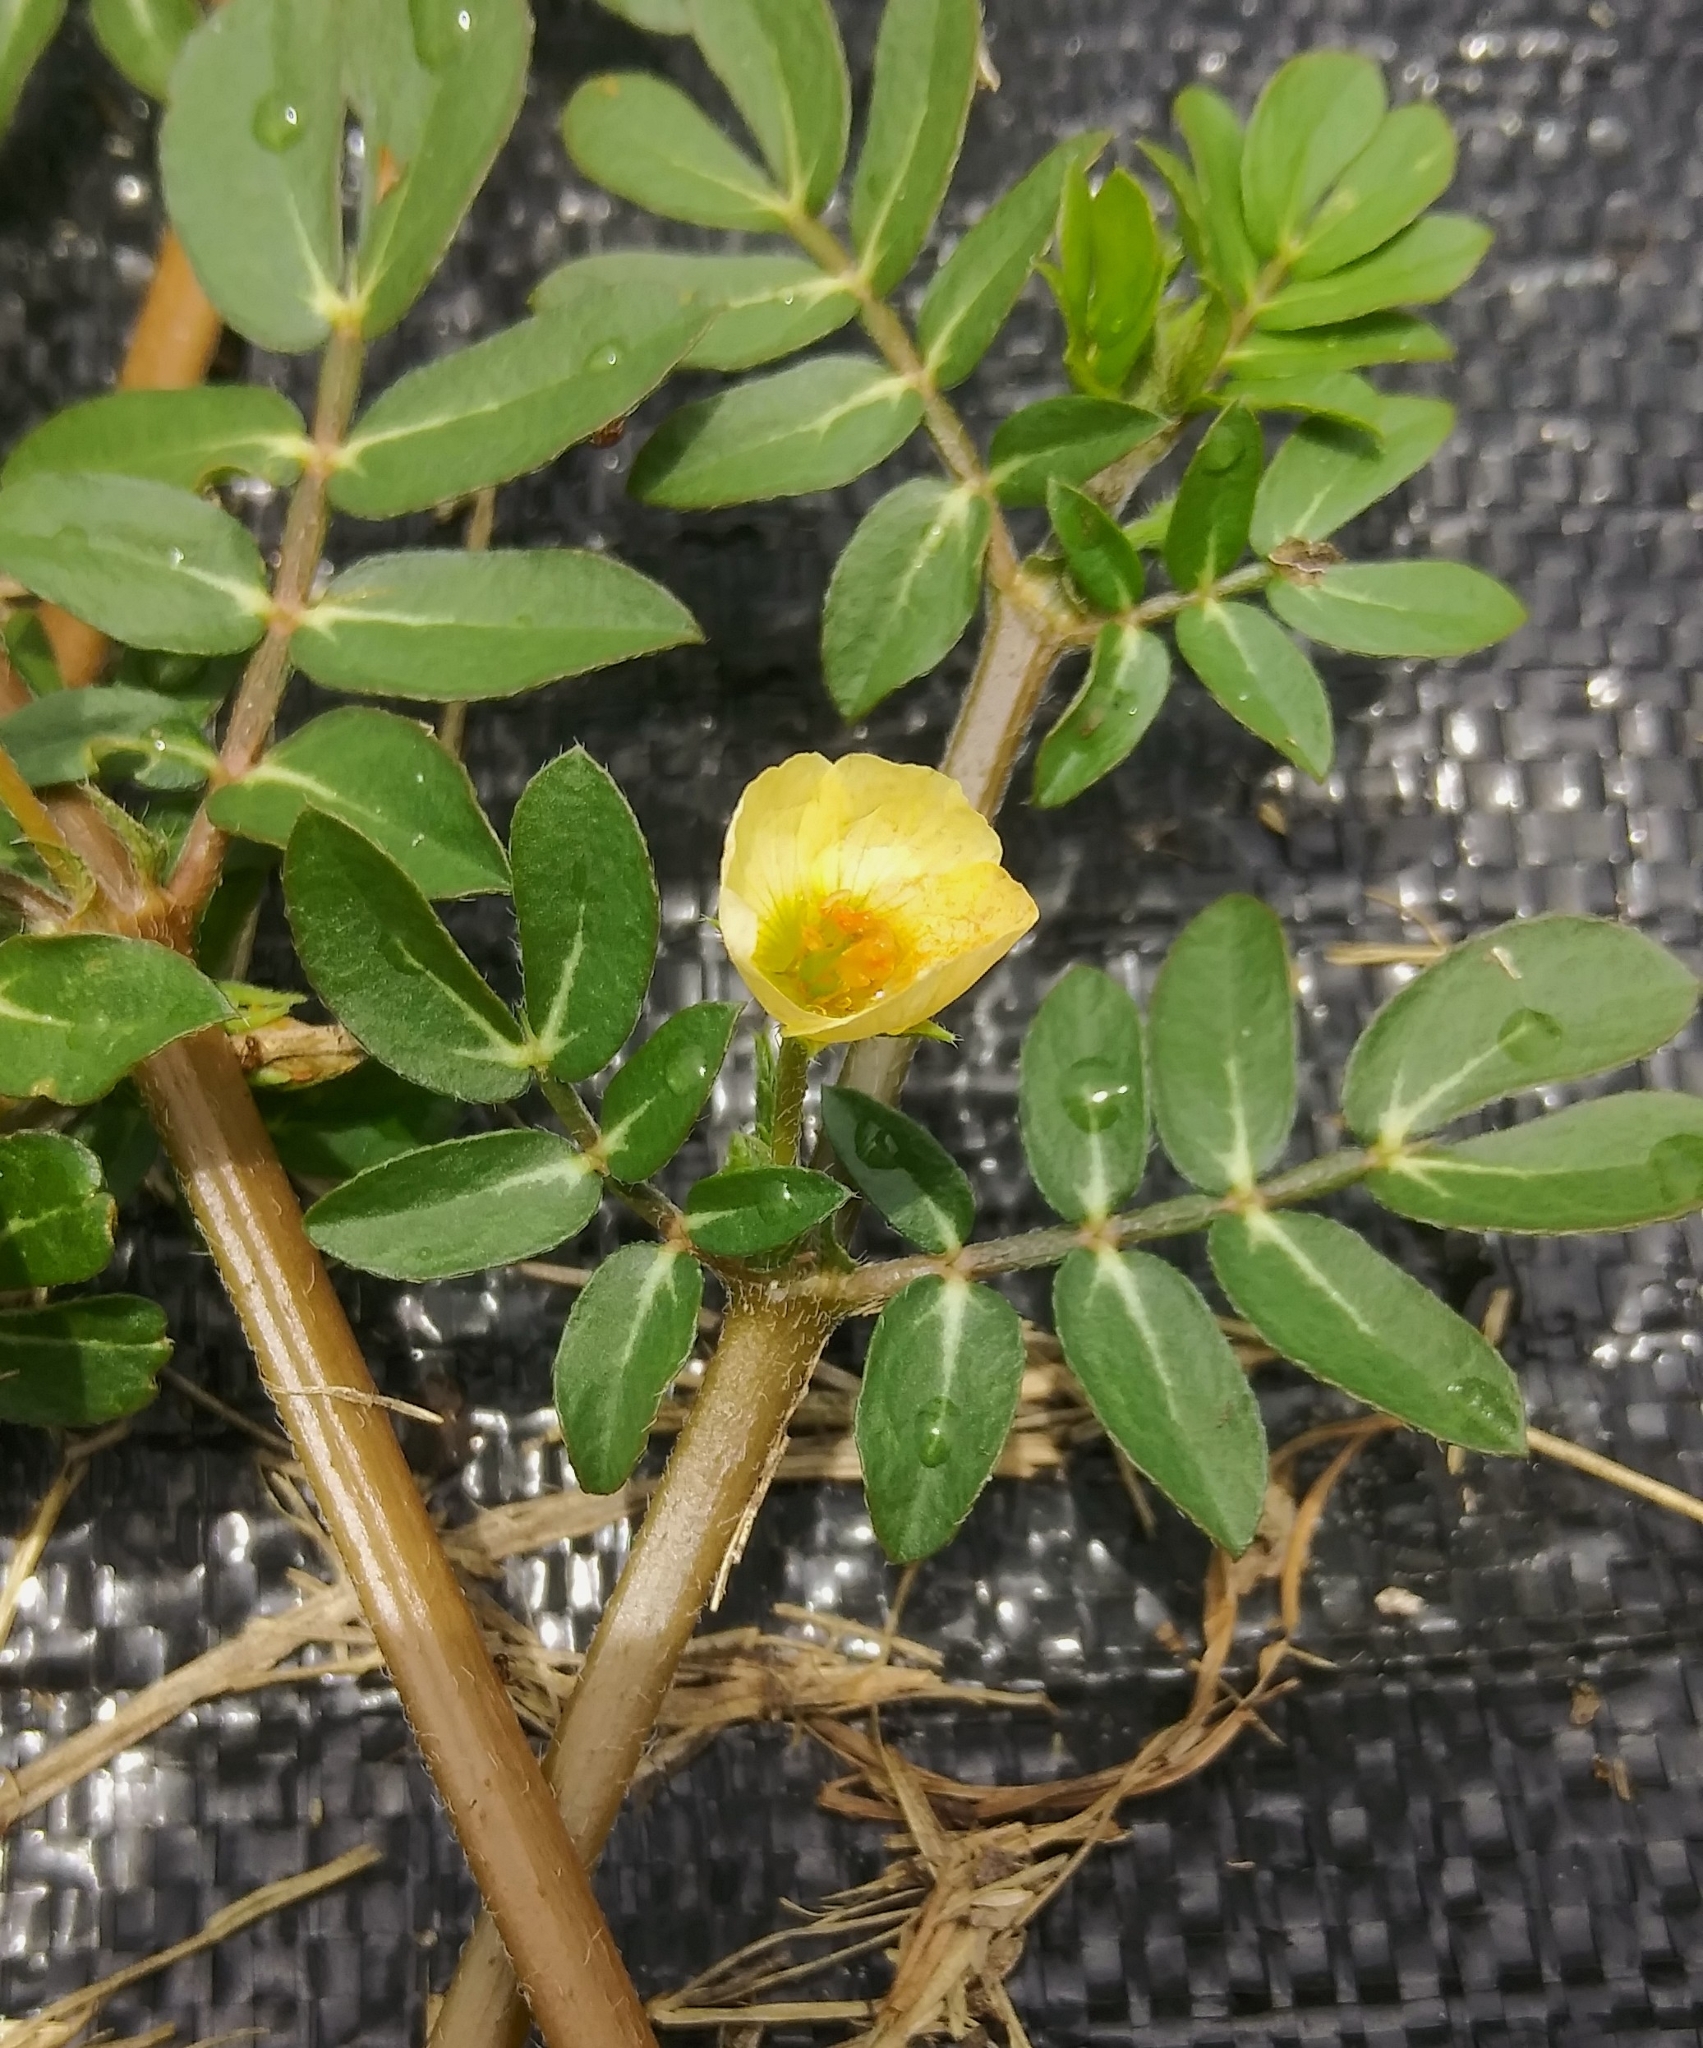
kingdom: Plantae
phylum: Tracheophyta
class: Magnoliopsida
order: Zygophyllales
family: Zygophyllaceae
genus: Kallstroemia
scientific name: Kallstroemia maxima
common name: Big caltropa
